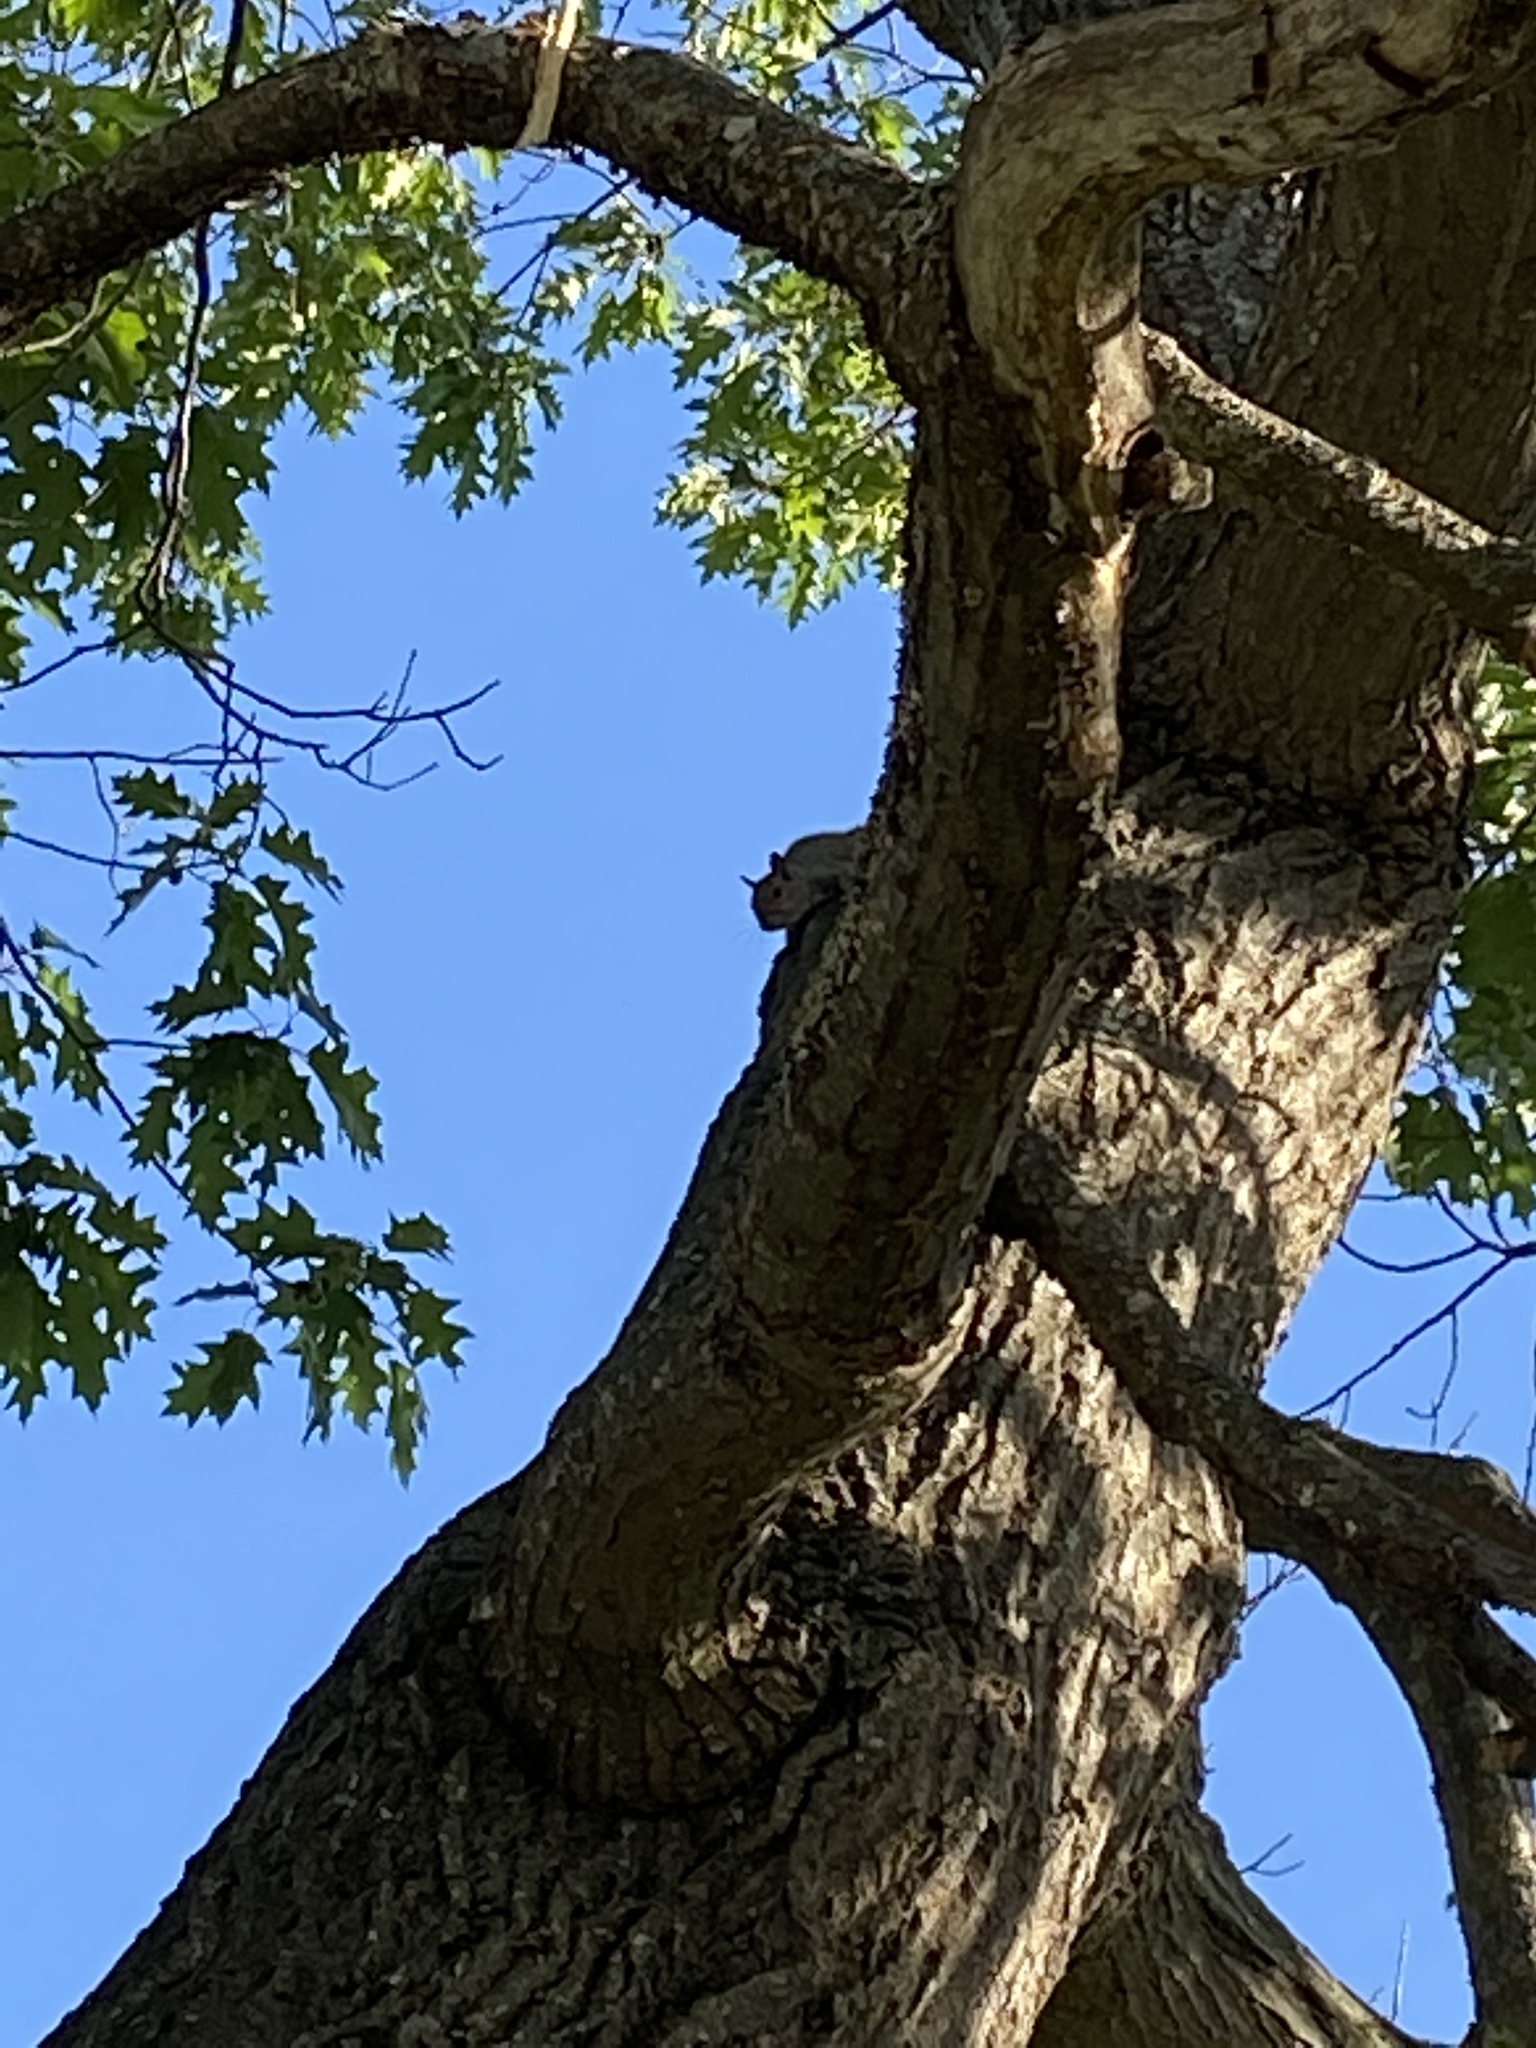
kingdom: Animalia
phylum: Chordata
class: Mammalia
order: Rodentia
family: Sciuridae
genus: Sciurus
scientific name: Sciurus carolinensis
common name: Eastern gray squirrel
